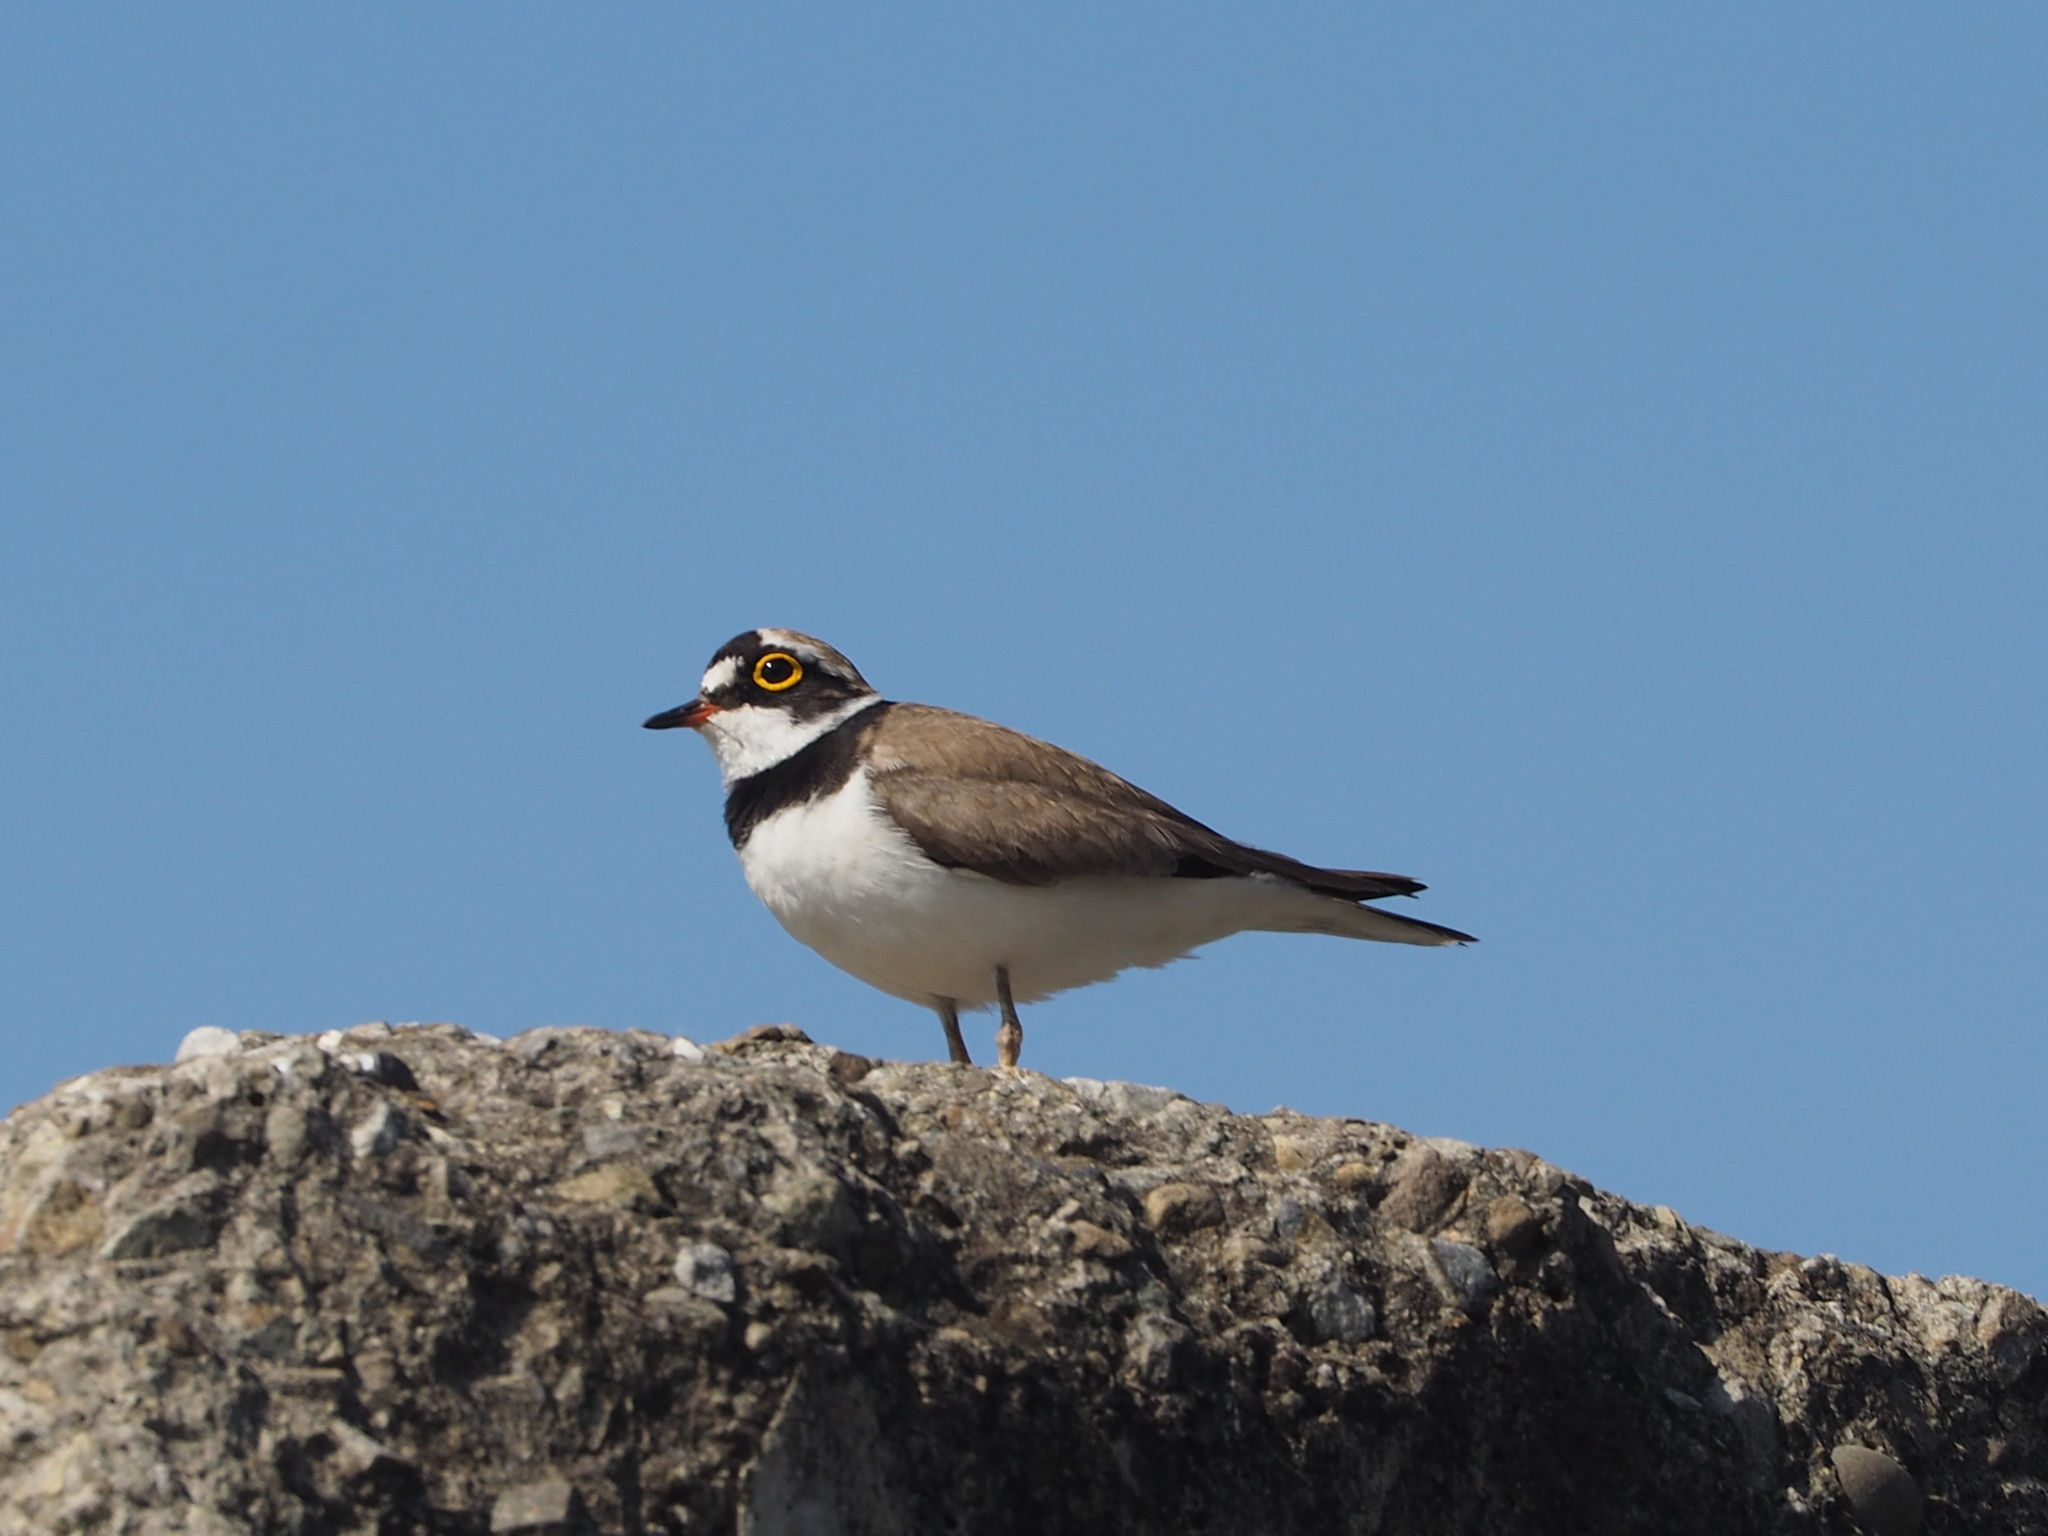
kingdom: Animalia
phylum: Chordata
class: Aves
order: Charadriiformes
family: Charadriidae
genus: Charadrius
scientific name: Charadrius dubius
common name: Little ringed plover
